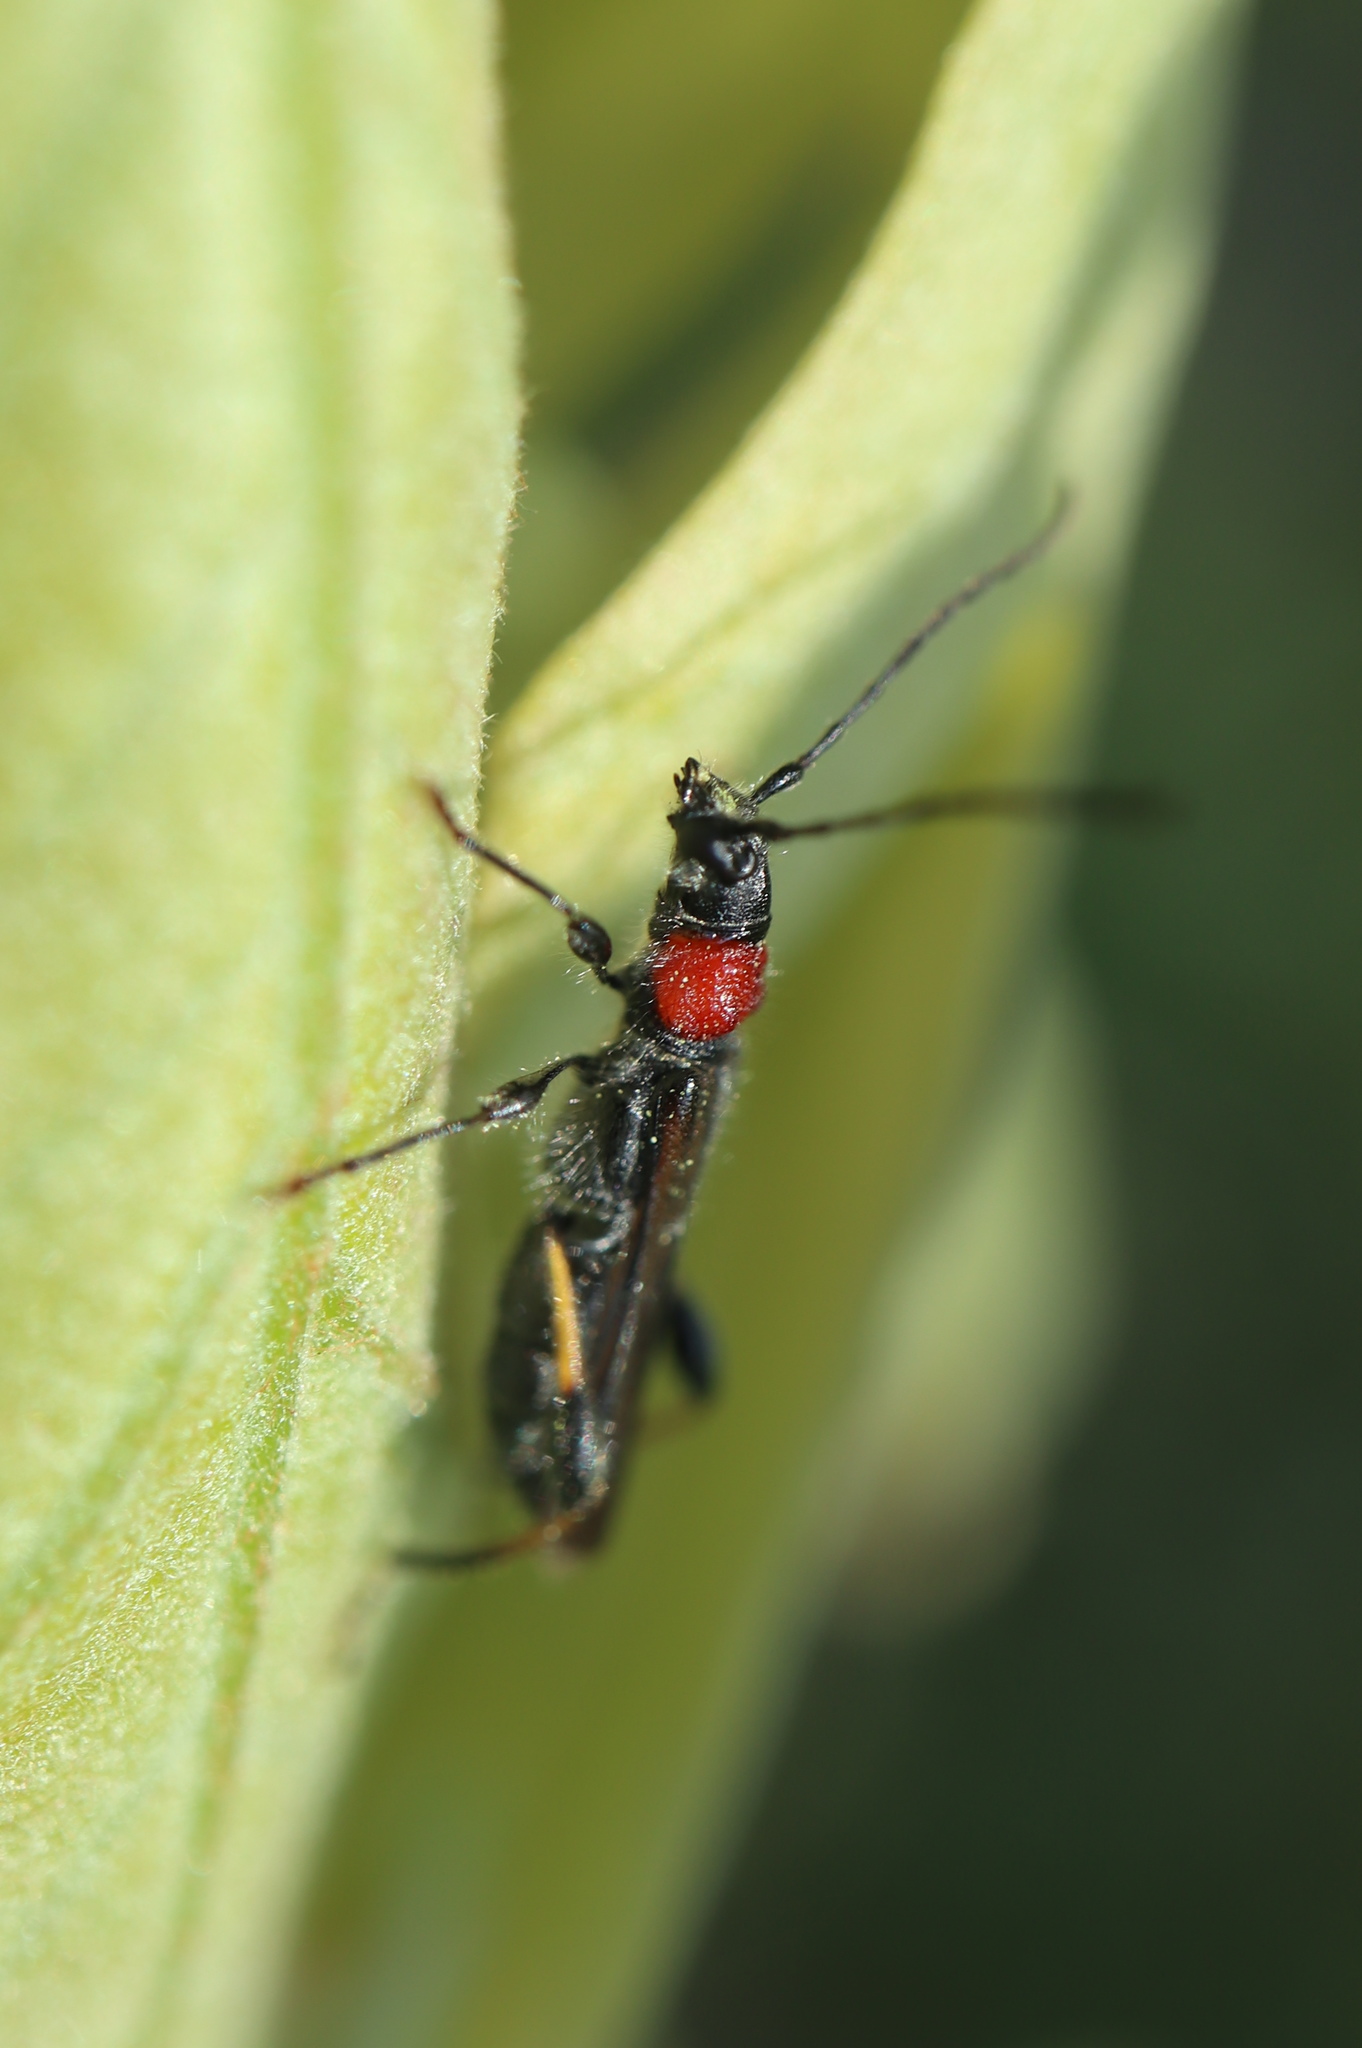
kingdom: Animalia
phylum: Arthropoda
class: Insecta
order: Coleoptera
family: Cerambycidae
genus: Callimoxys
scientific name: Callimoxys sanguinicollis
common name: Blood-necked longhorn beetle
